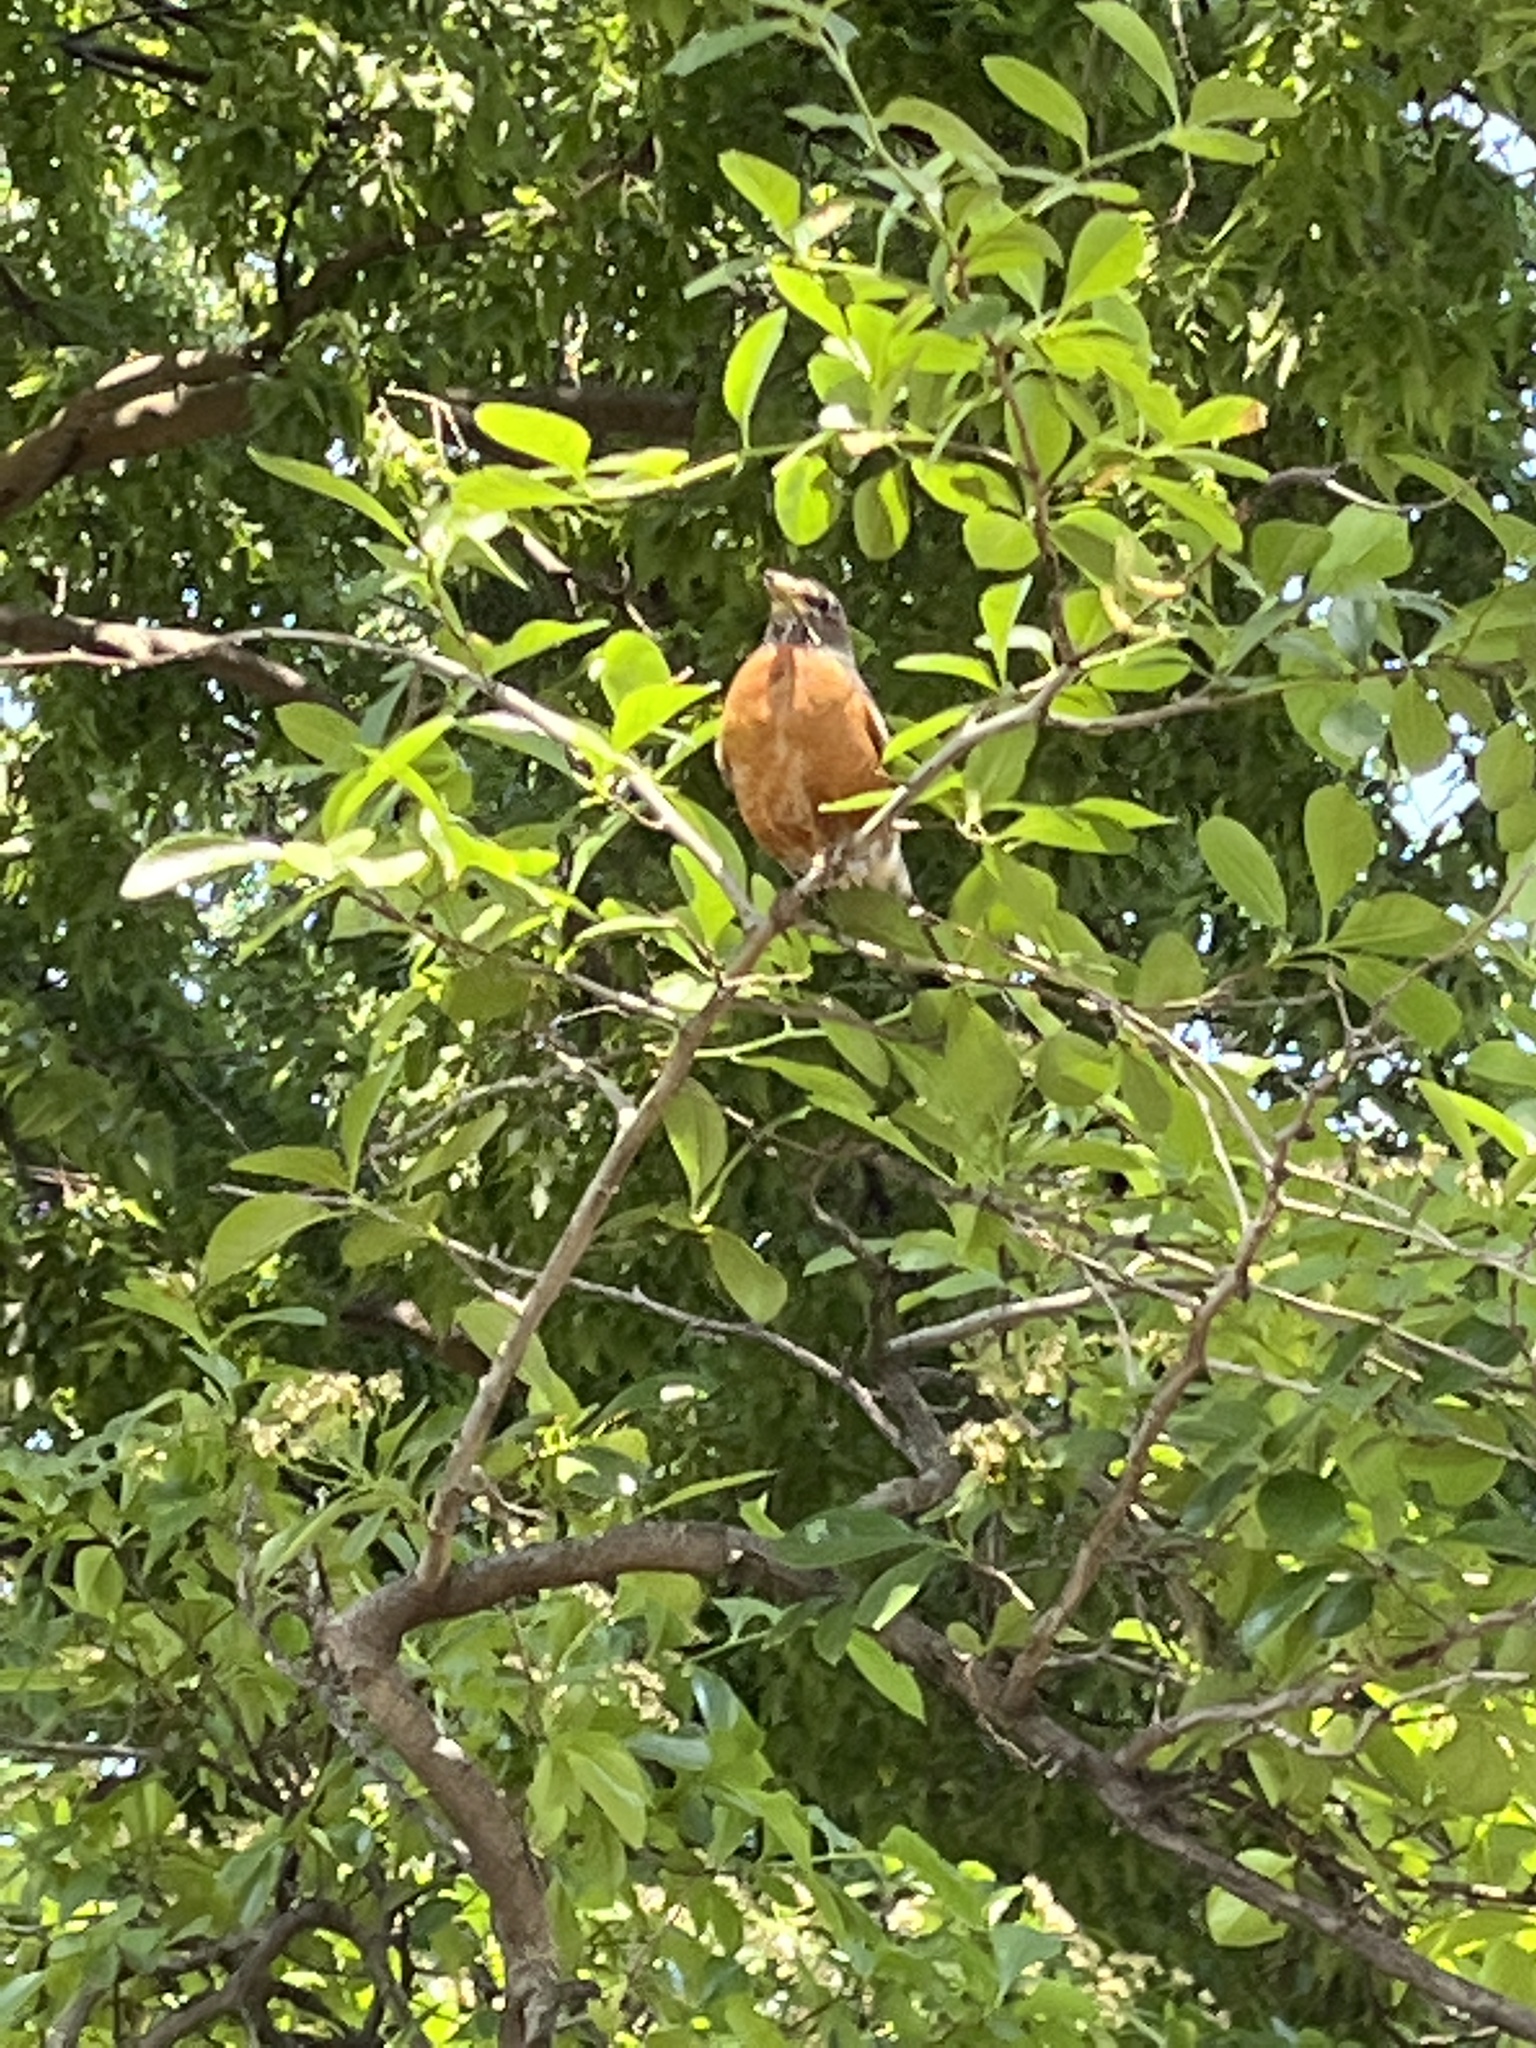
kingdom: Animalia
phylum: Chordata
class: Aves
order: Passeriformes
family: Turdidae
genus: Turdus
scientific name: Turdus migratorius
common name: American robin
